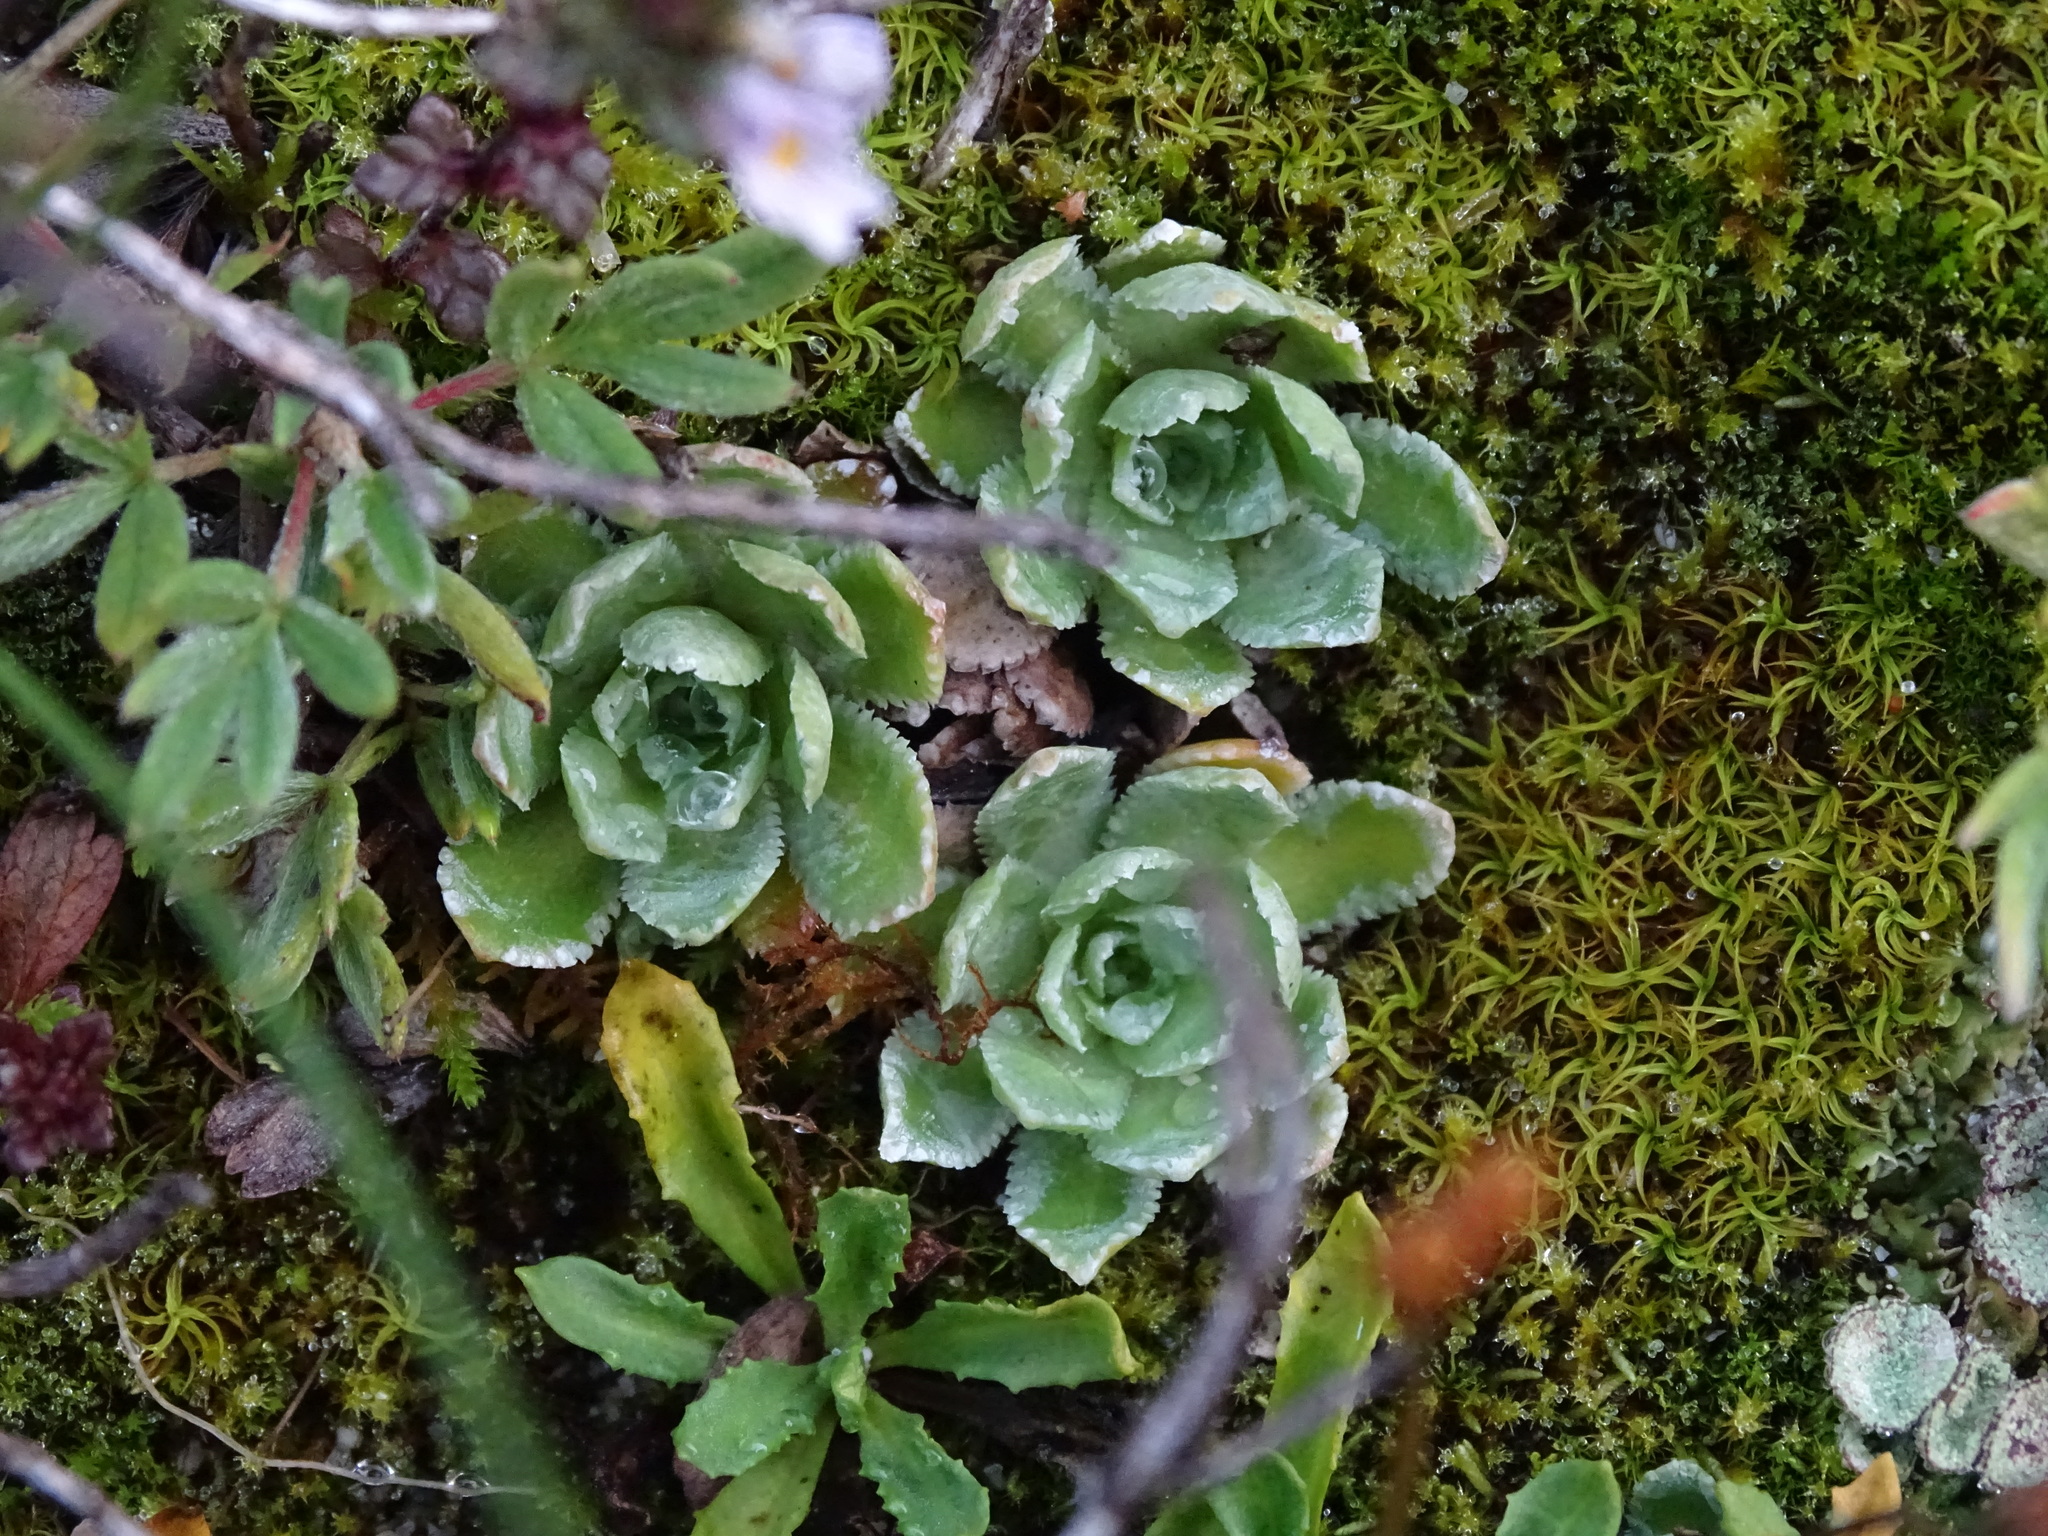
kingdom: Plantae
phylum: Tracheophyta
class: Magnoliopsida
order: Saxifragales
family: Saxifragaceae
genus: Saxifraga
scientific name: Saxifraga paniculata
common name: Livelong saxifrage
